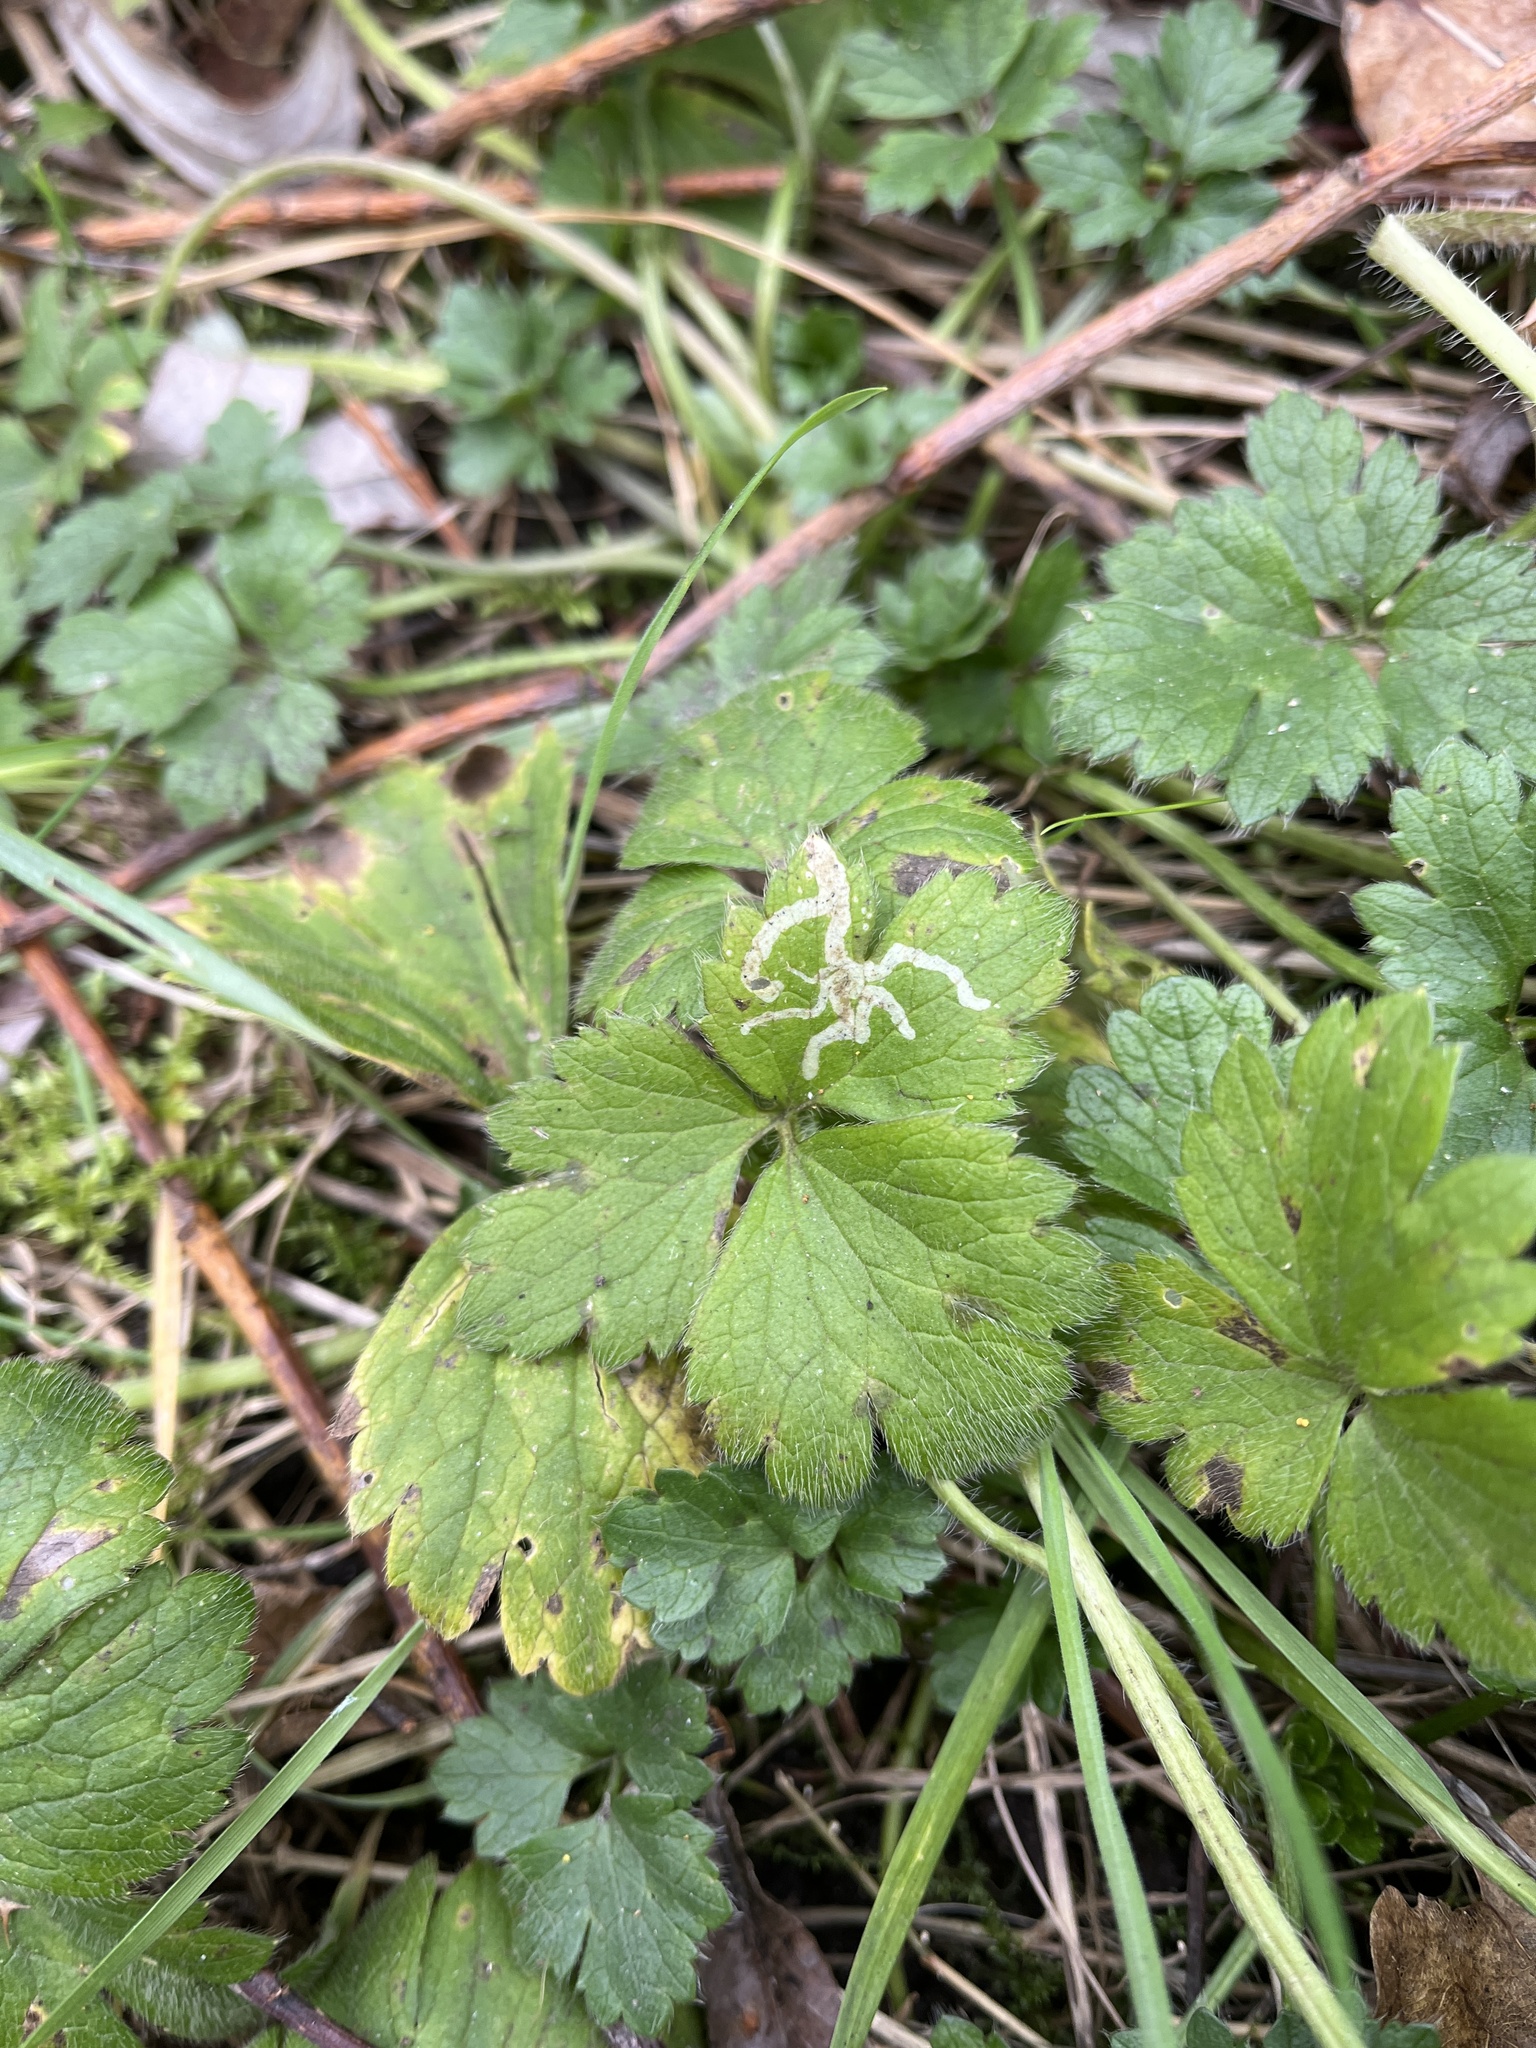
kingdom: Animalia
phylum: Arthropoda
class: Insecta
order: Diptera
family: Agromyzidae
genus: Phytomyza
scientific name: Phytomyza ranunculi
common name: Leaf-miner fly
